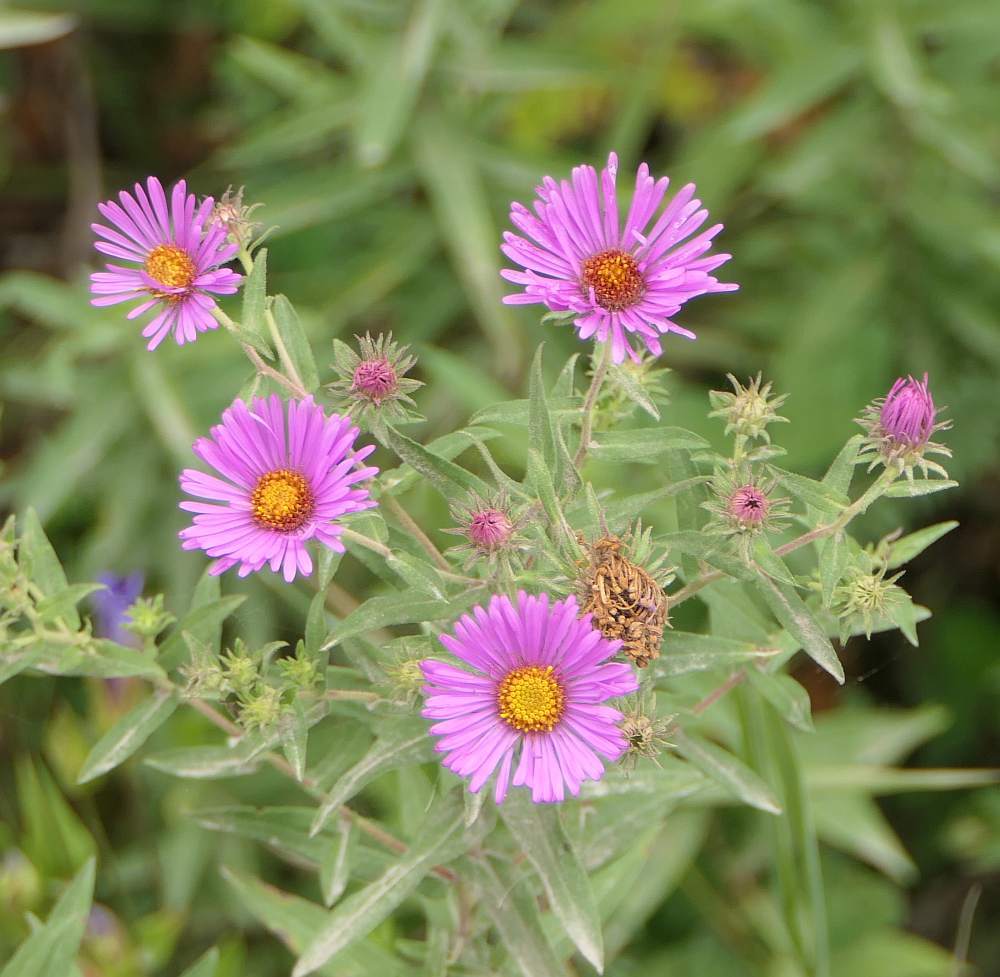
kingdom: Plantae
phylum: Tracheophyta
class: Magnoliopsida
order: Asterales
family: Asteraceae
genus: Symphyotrichum
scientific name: Symphyotrichum novae-angliae
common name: Michaelmas daisy
